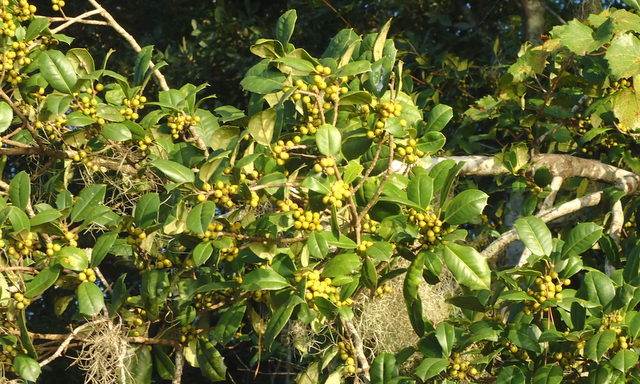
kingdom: Plantae
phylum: Tracheophyta
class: Magnoliopsida
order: Aquifoliales
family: Aquifoliaceae
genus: Ilex
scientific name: Ilex opaca
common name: American holly
